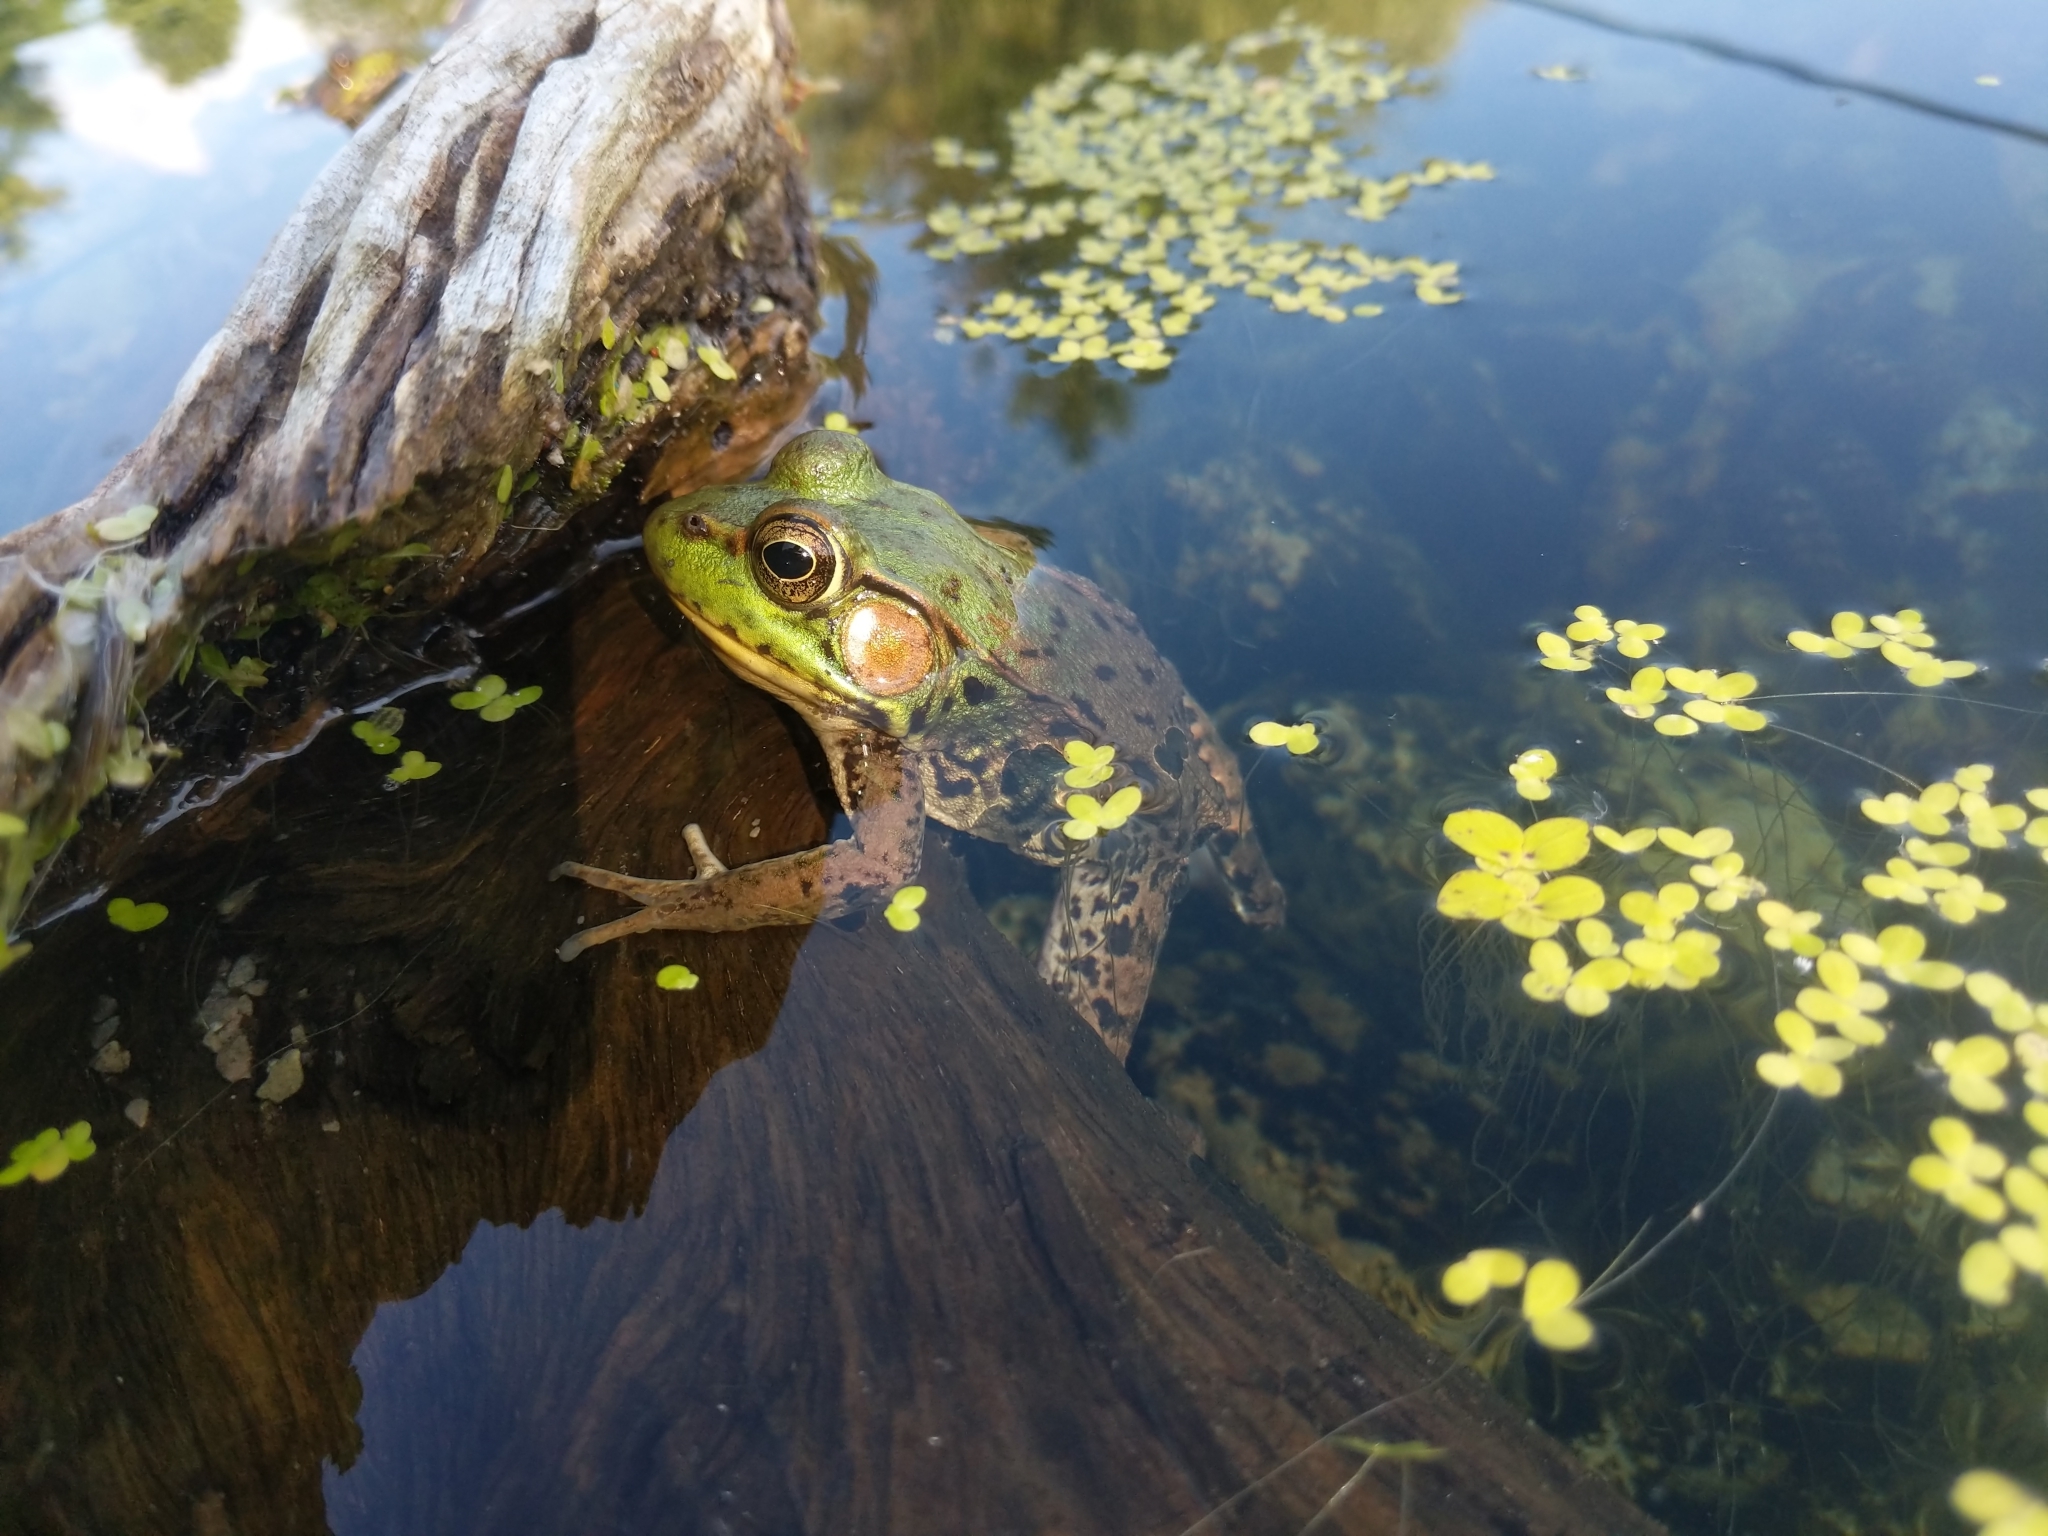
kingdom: Animalia
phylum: Chordata
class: Amphibia
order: Anura
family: Ranidae
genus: Lithobates
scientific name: Lithobates clamitans
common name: Green frog
